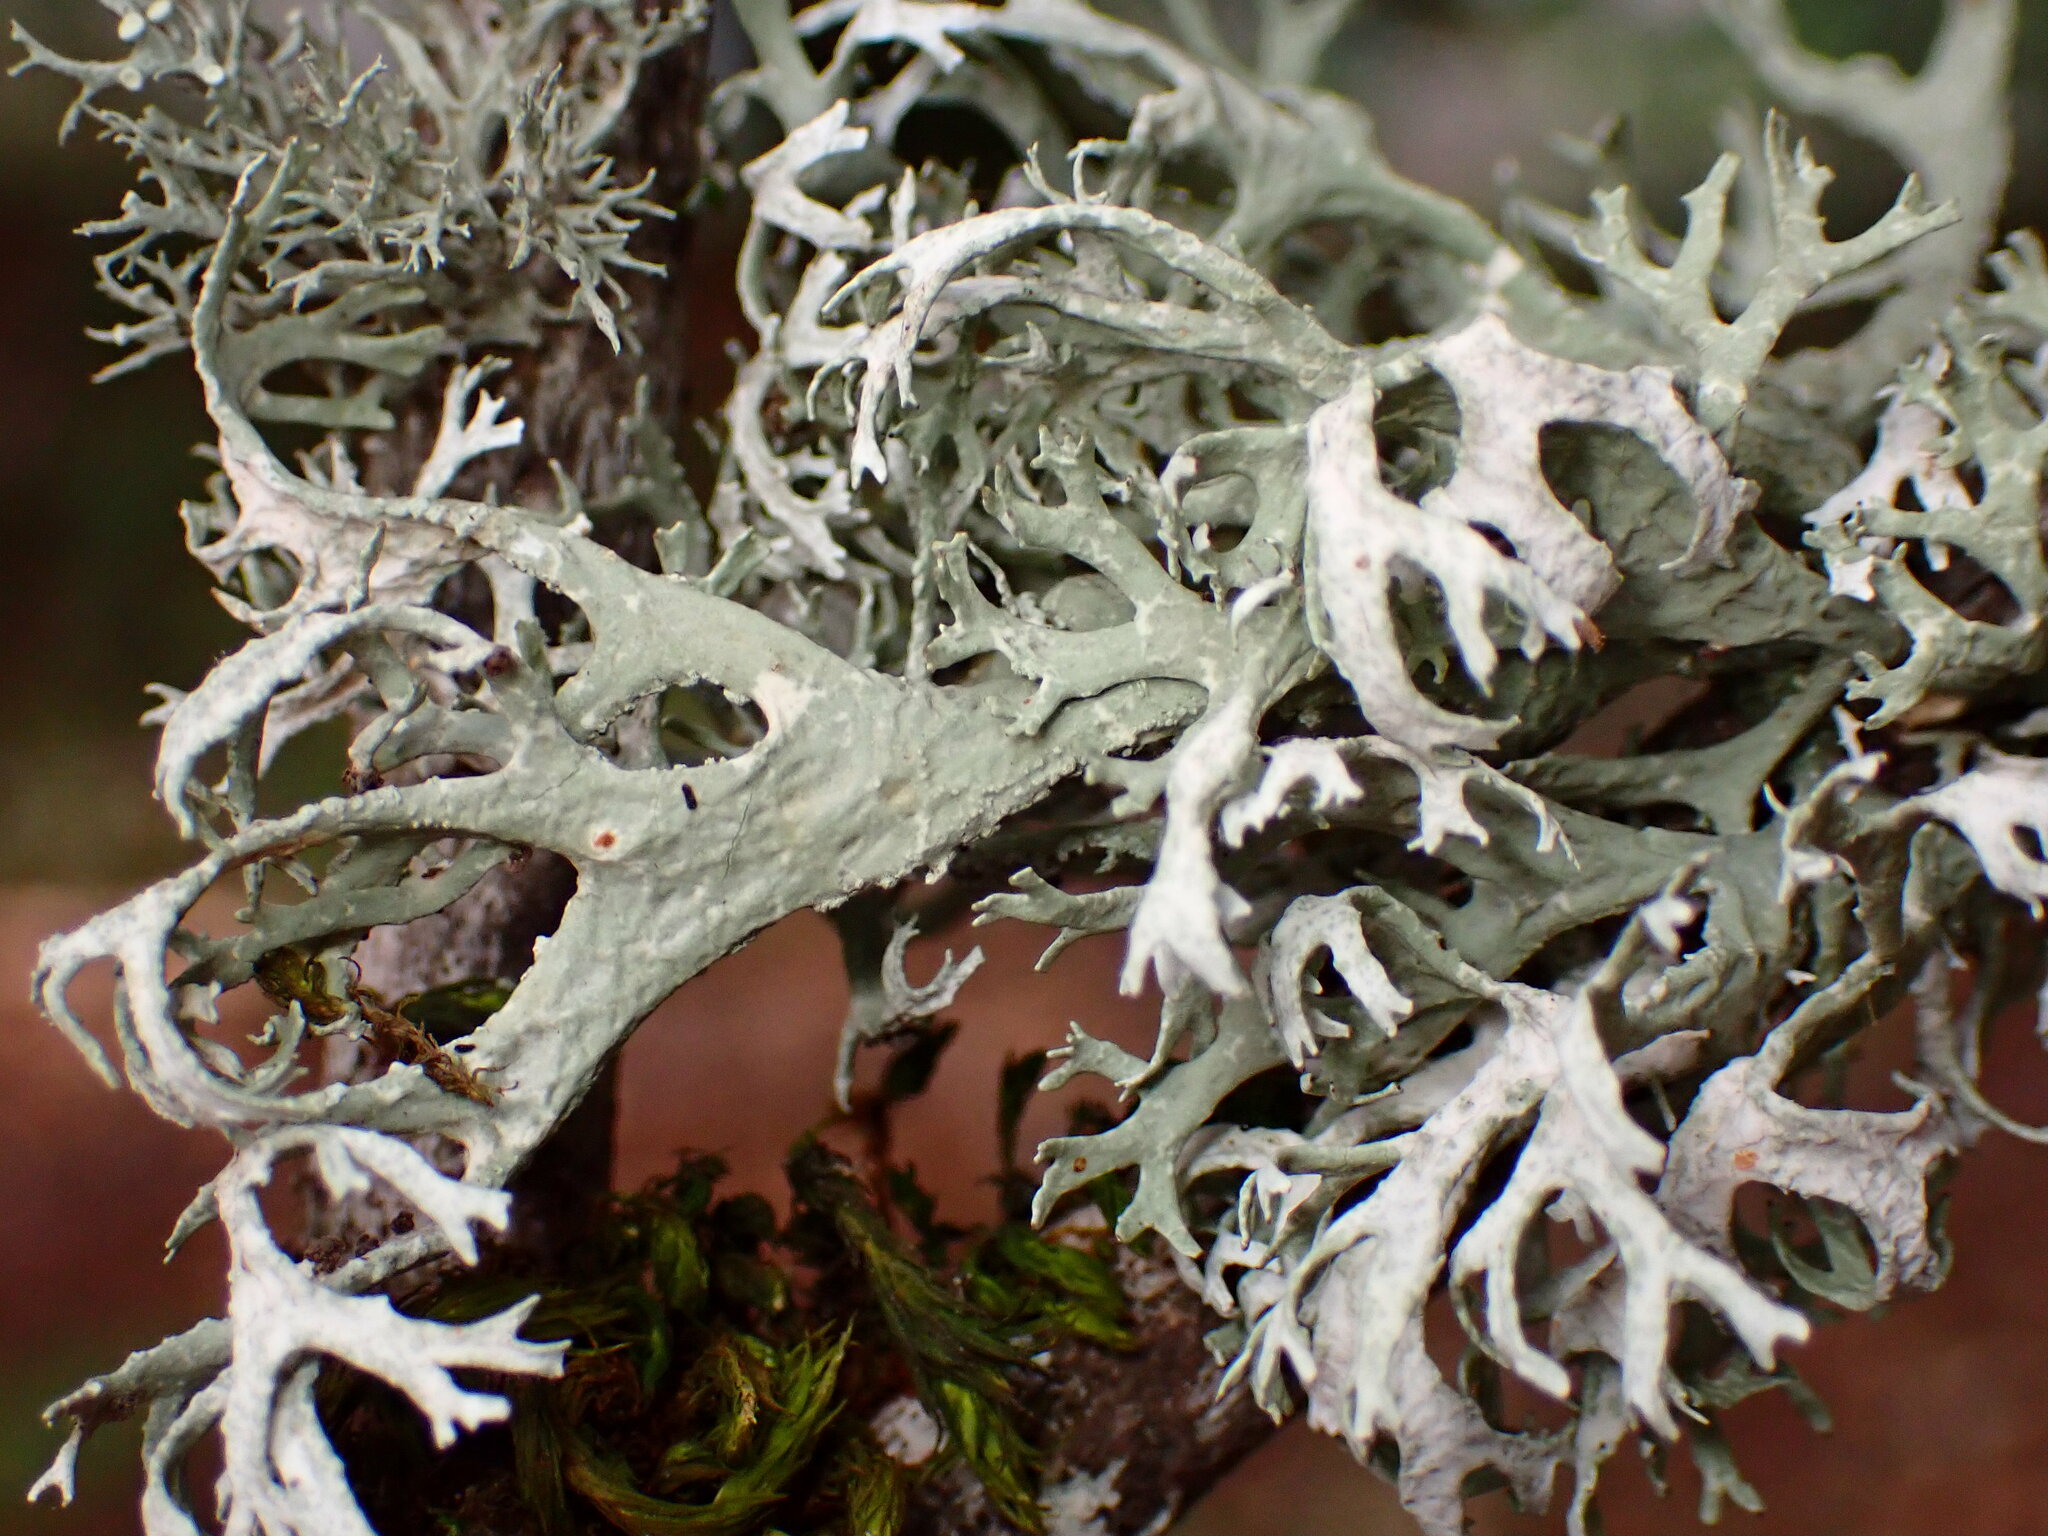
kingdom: Fungi
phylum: Ascomycota
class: Lecanoromycetes
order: Lecanorales
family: Parmeliaceae
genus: Evernia
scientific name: Evernia prunastri
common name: Oak moss
